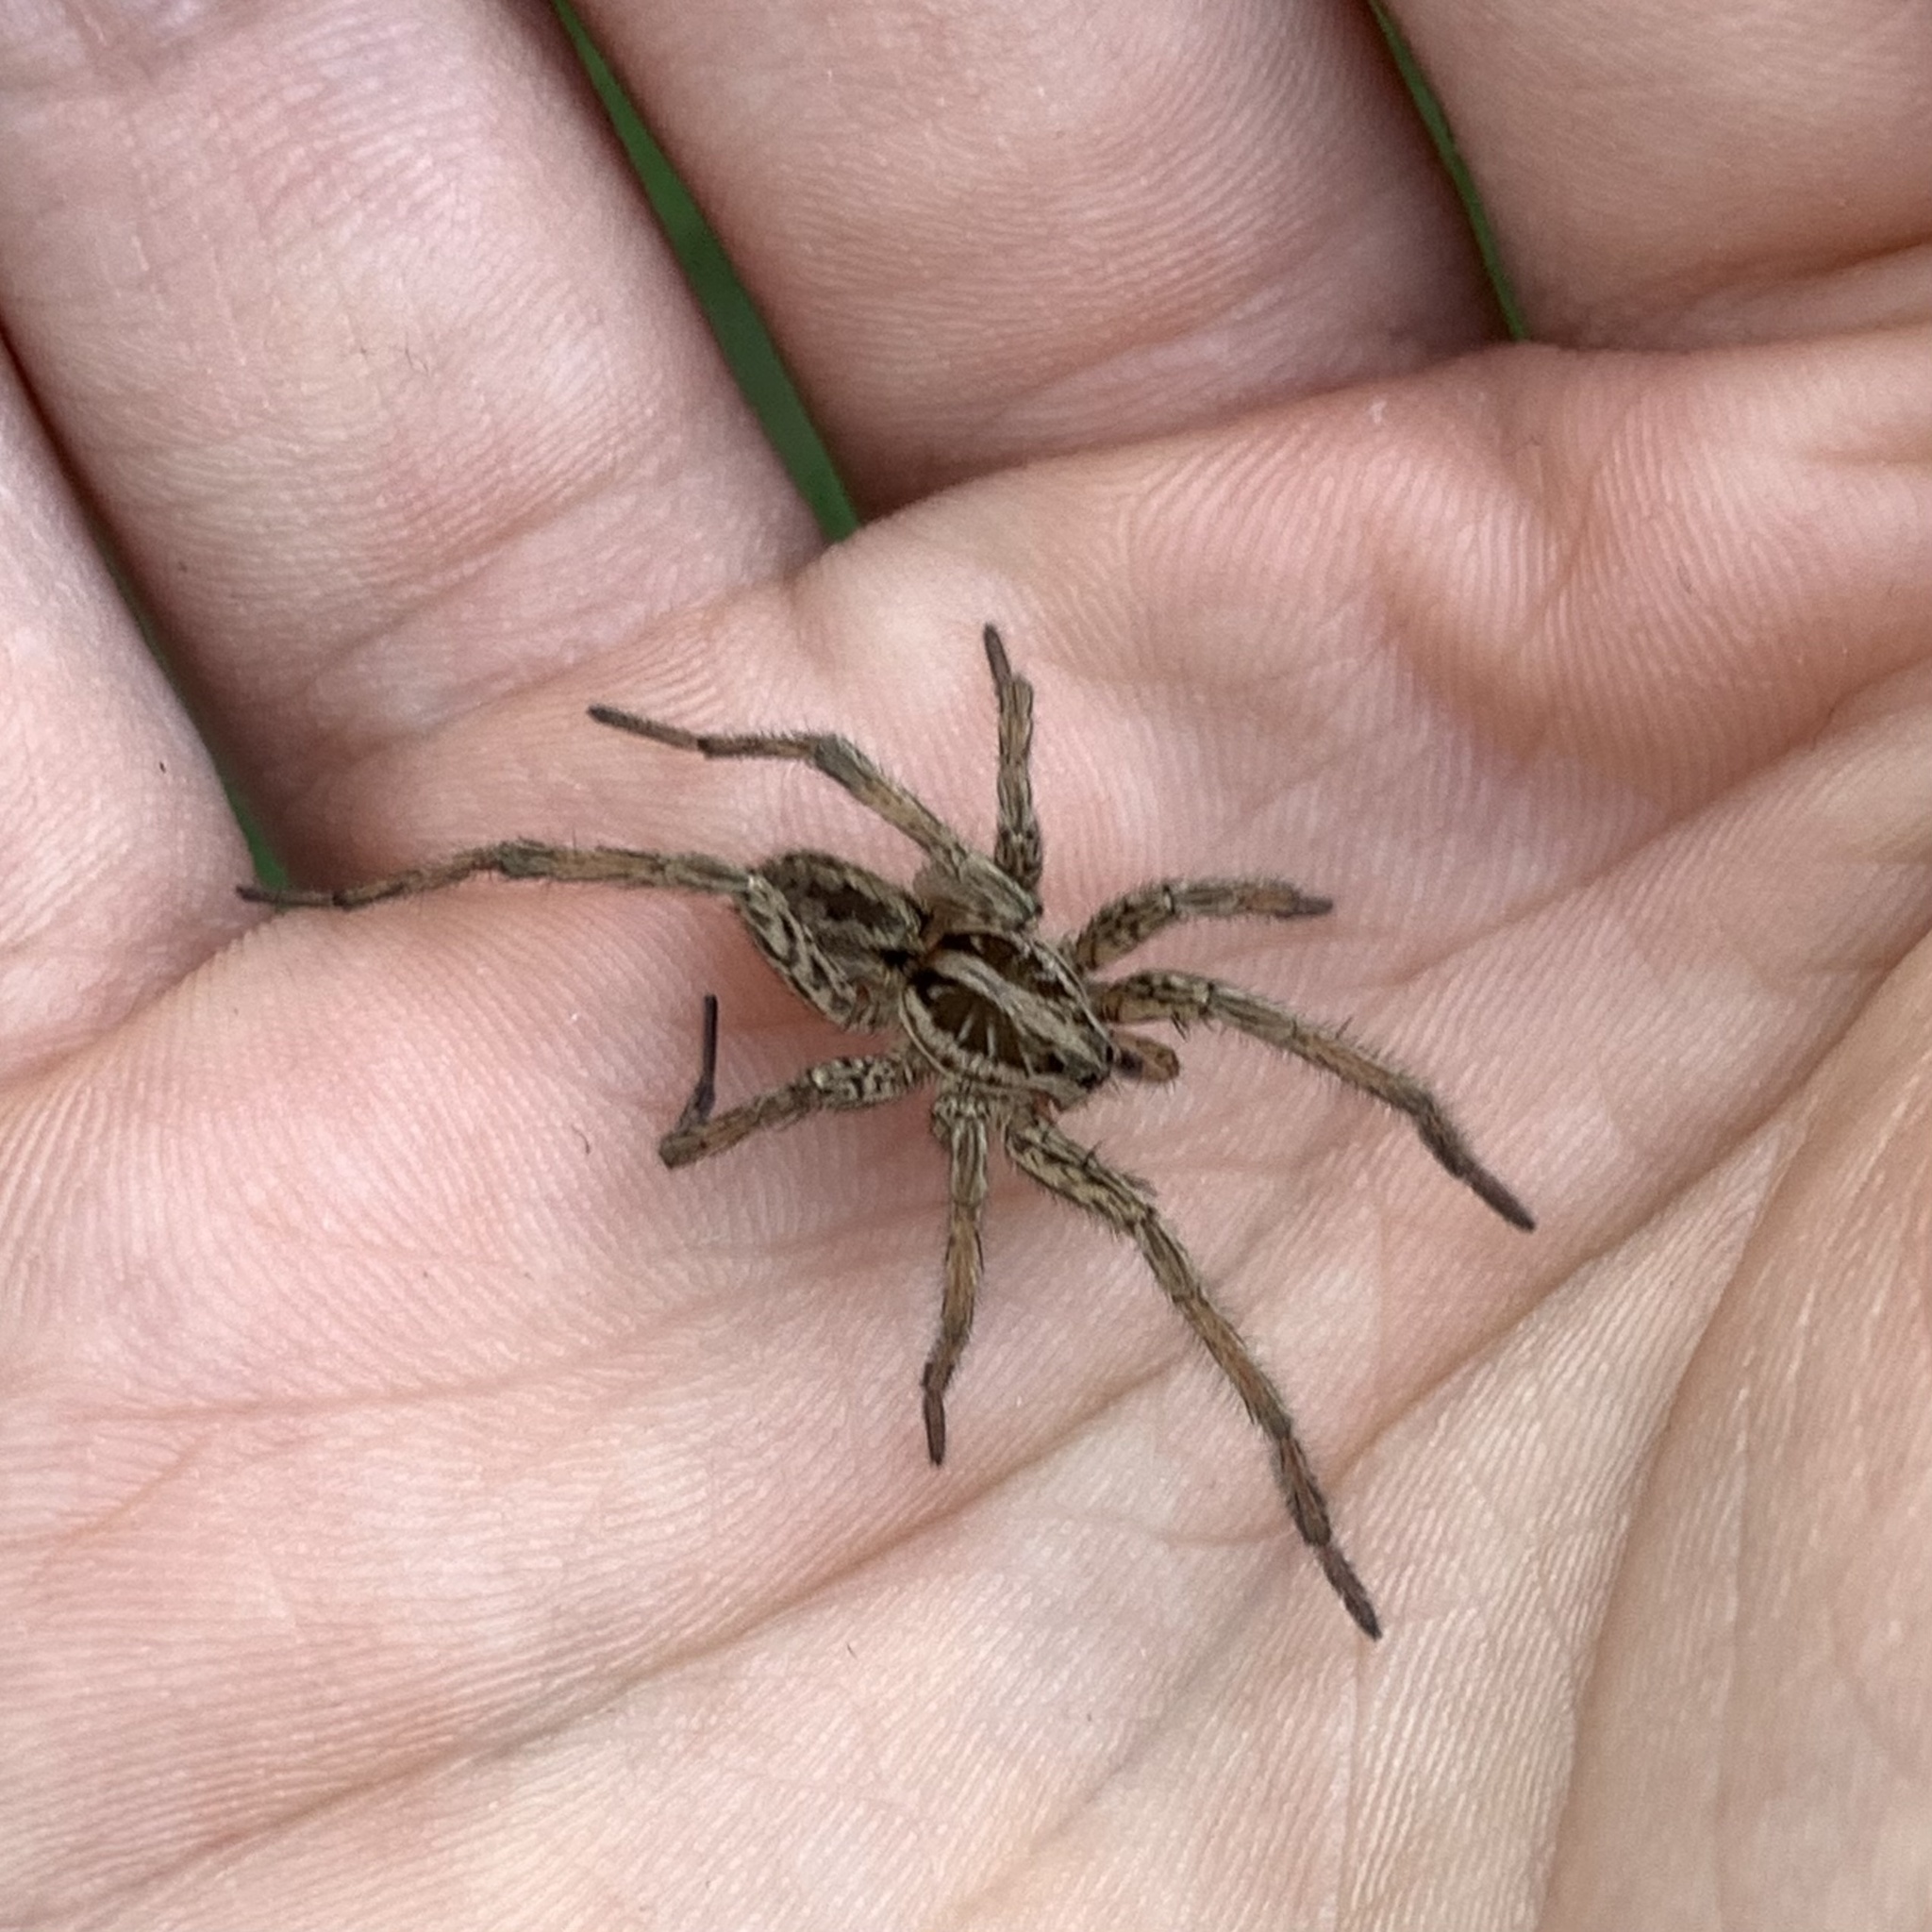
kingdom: Animalia
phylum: Arthropoda
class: Arachnida
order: Araneae
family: Lycosidae
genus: Hogna
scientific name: Hogna radiata
